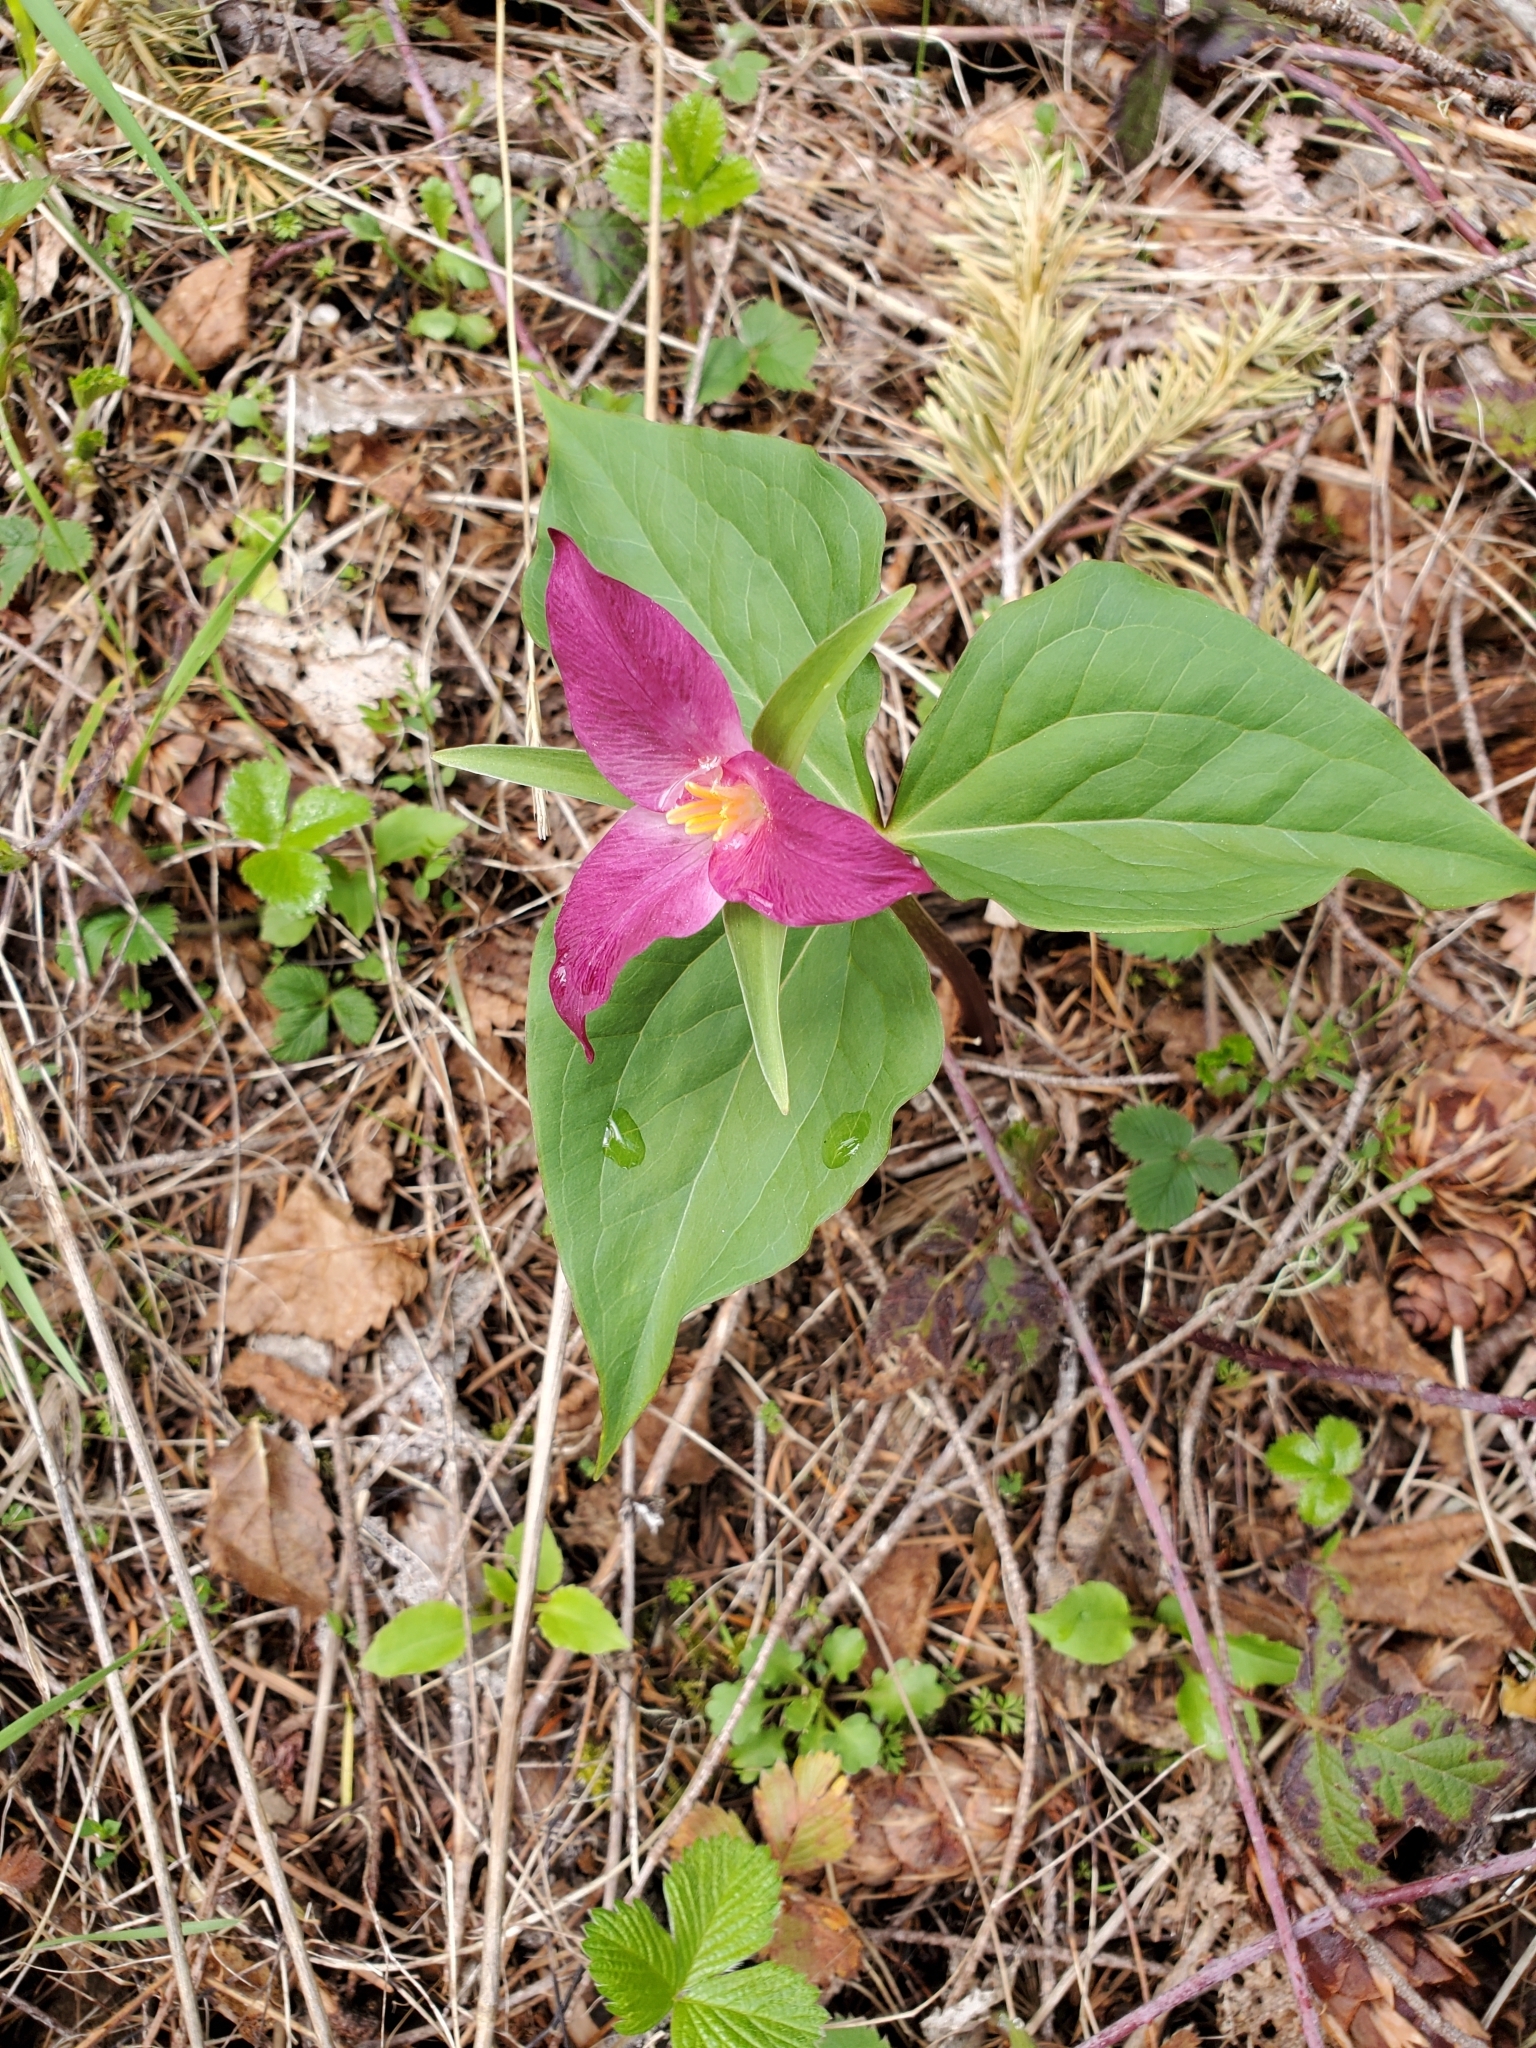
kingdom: Plantae
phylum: Tracheophyta
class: Liliopsida
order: Liliales
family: Melanthiaceae
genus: Trillium
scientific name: Trillium ovatum
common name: Pacific trillium
